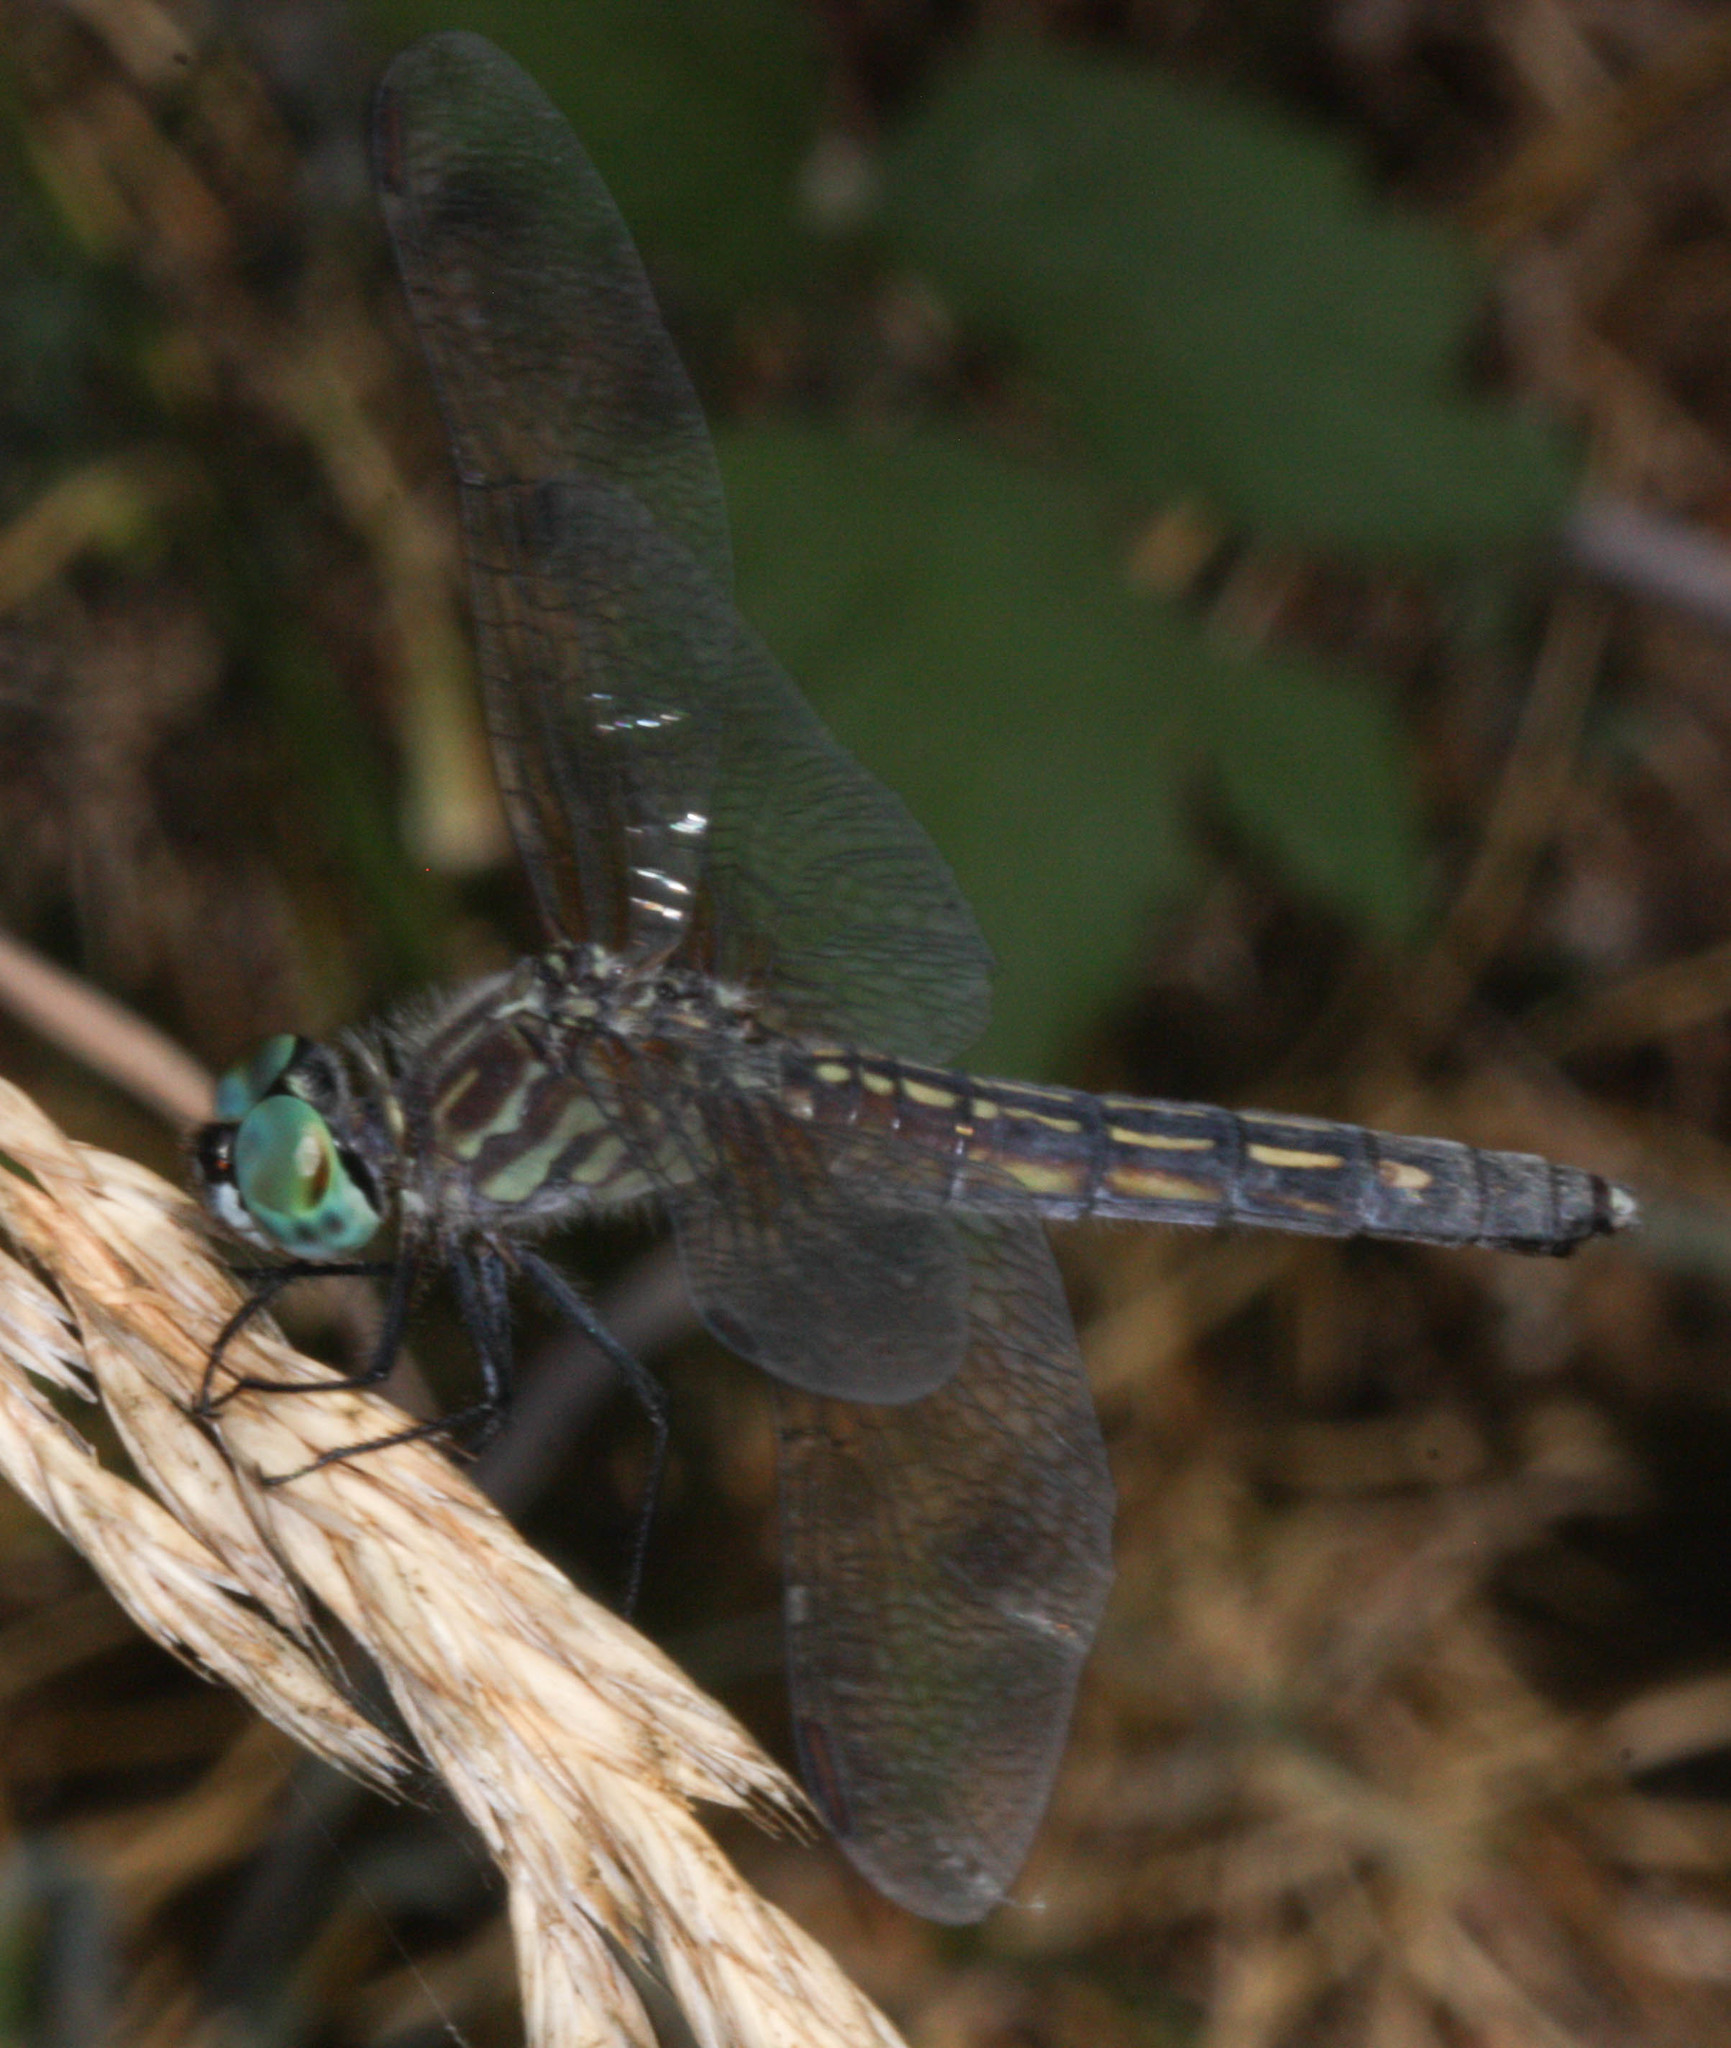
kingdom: Animalia
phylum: Arthropoda
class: Insecta
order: Odonata
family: Libellulidae
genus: Pachydiplax
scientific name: Pachydiplax longipennis
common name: Blue dasher
